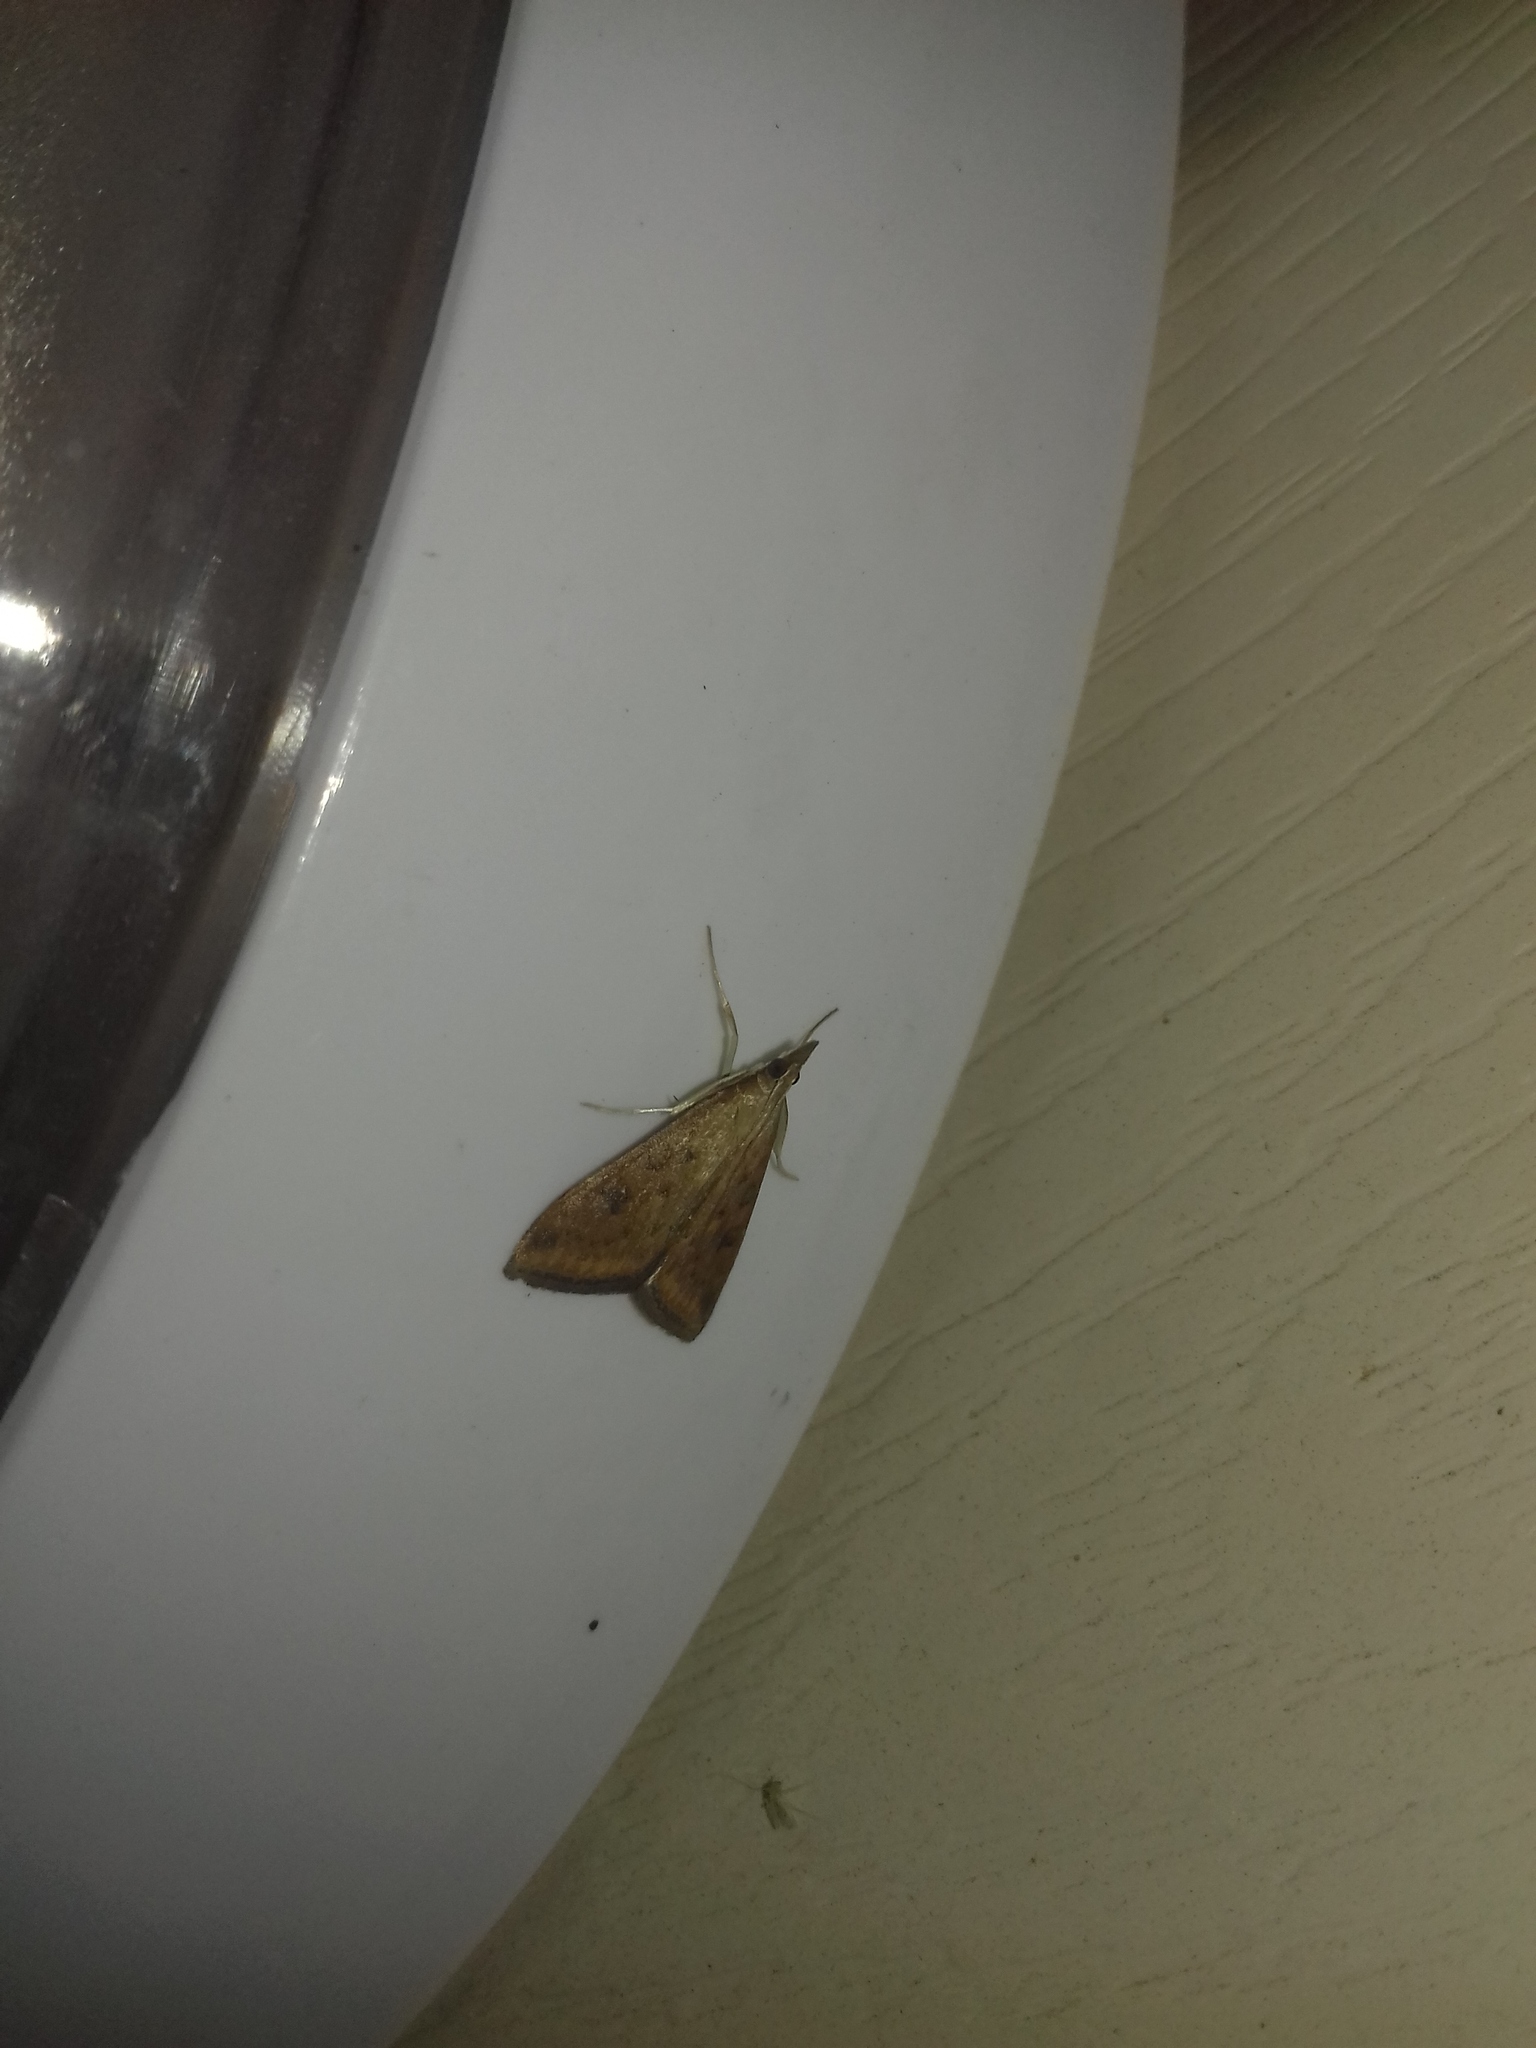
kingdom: Animalia
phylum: Arthropoda
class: Insecta
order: Lepidoptera
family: Crambidae
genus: Udea
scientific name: Udea ferrugalis
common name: Rusty dot
